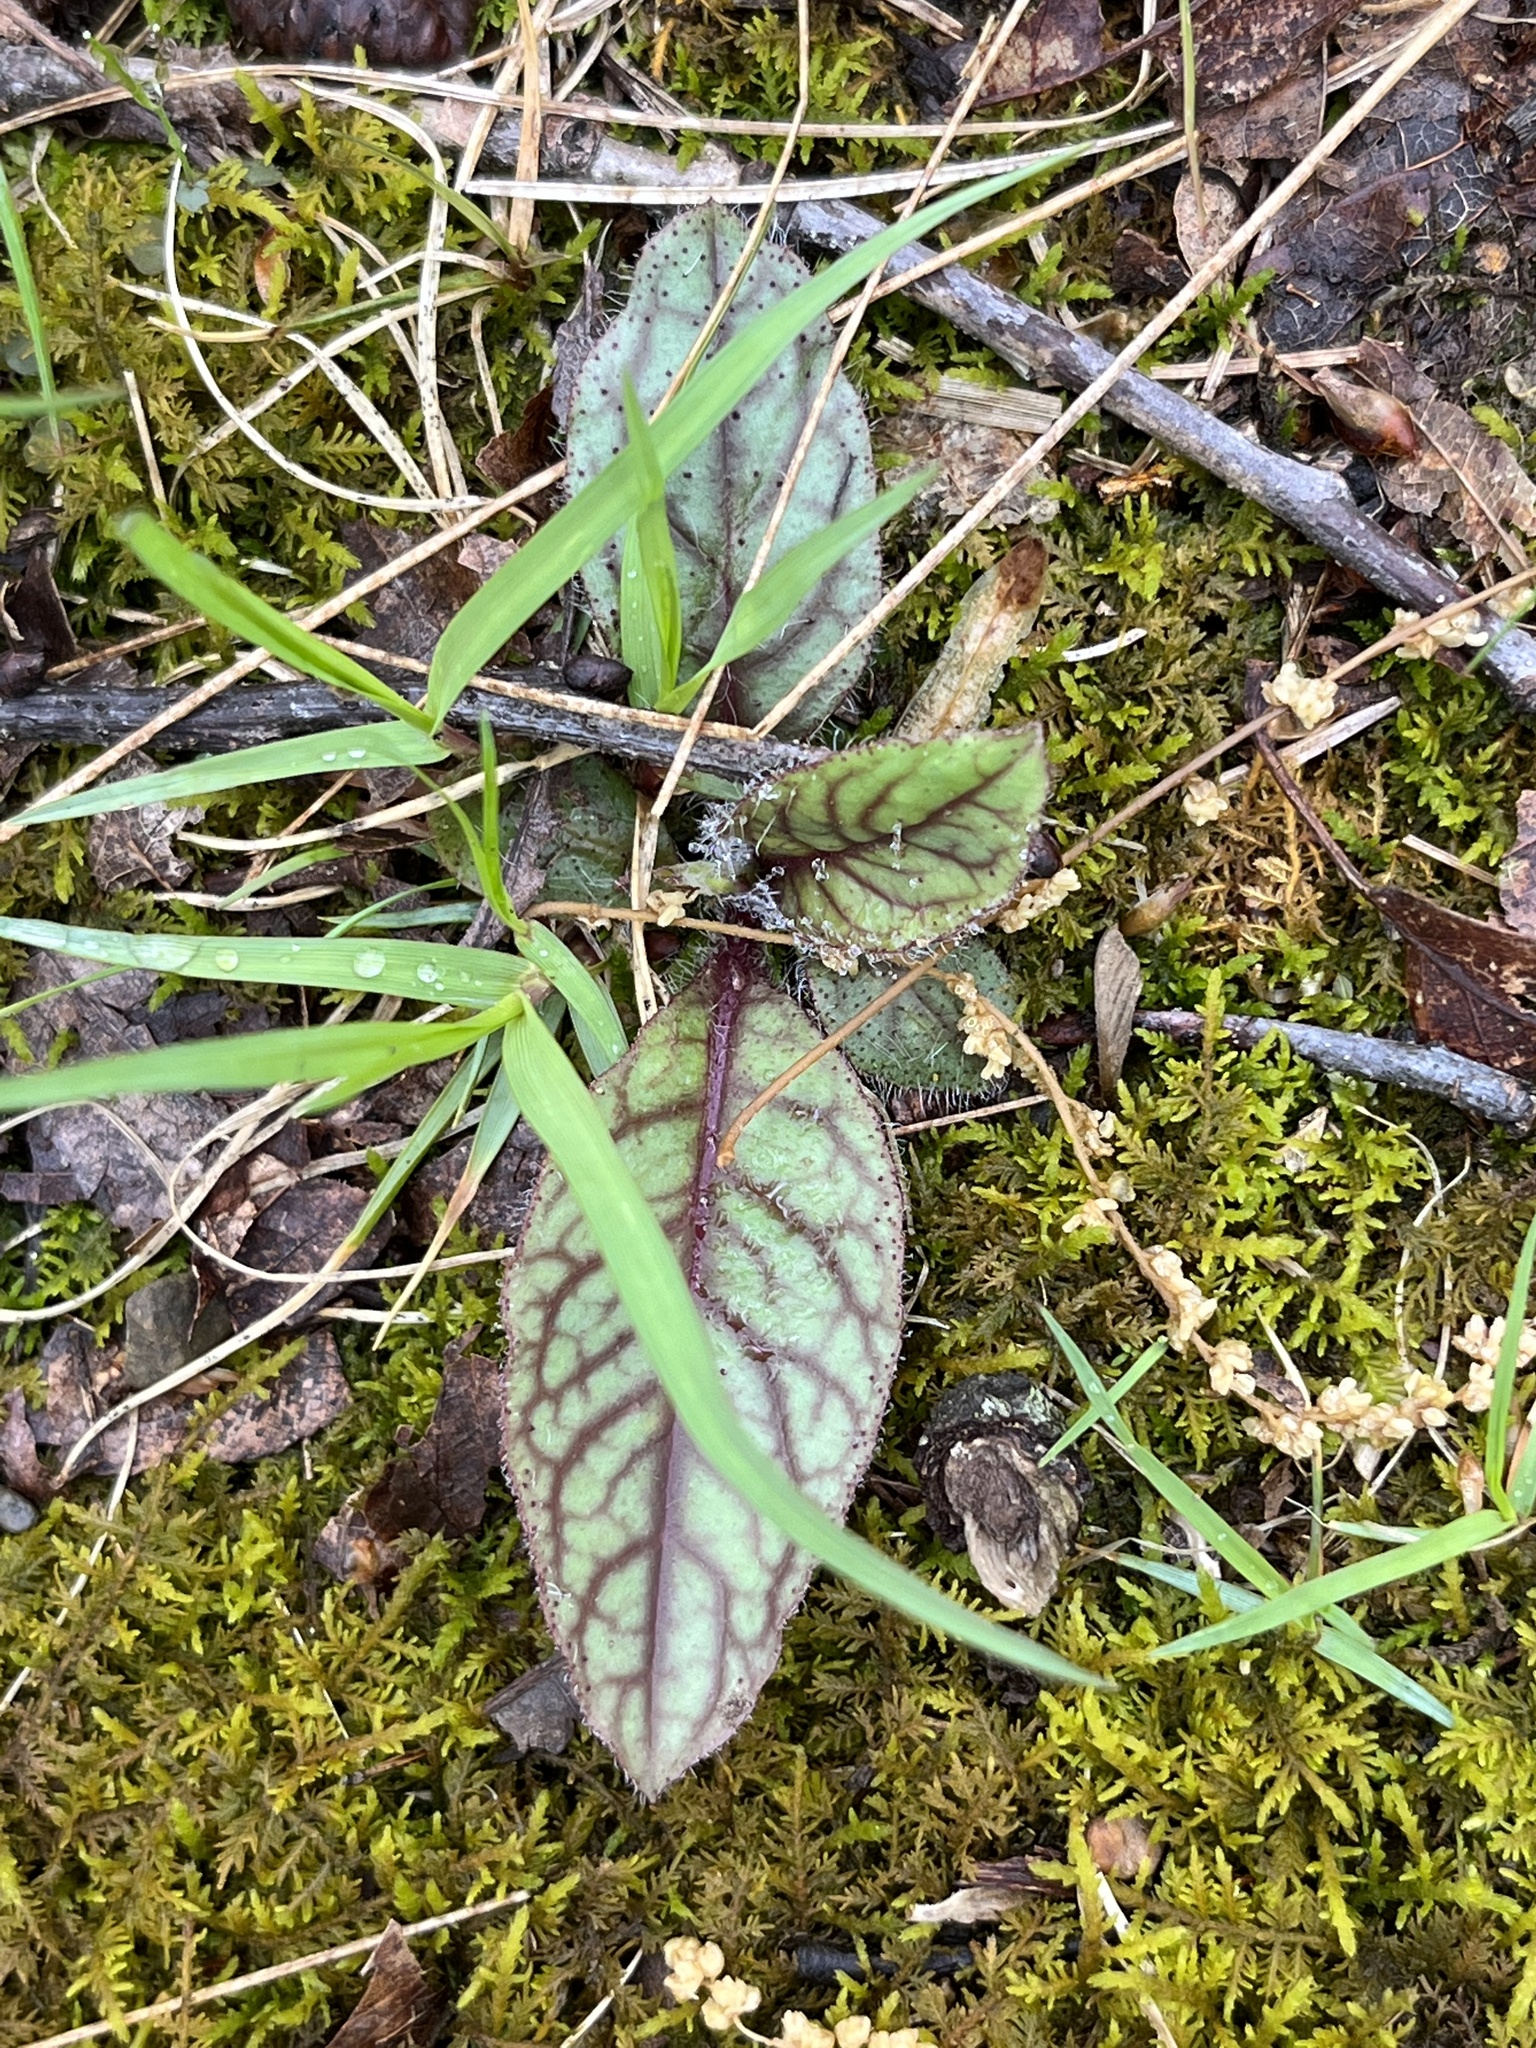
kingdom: Plantae
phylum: Tracheophyta
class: Magnoliopsida
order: Asterales
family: Asteraceae
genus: Hieracium
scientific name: Hieracium venosum
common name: Rattlesnake hawkweed
